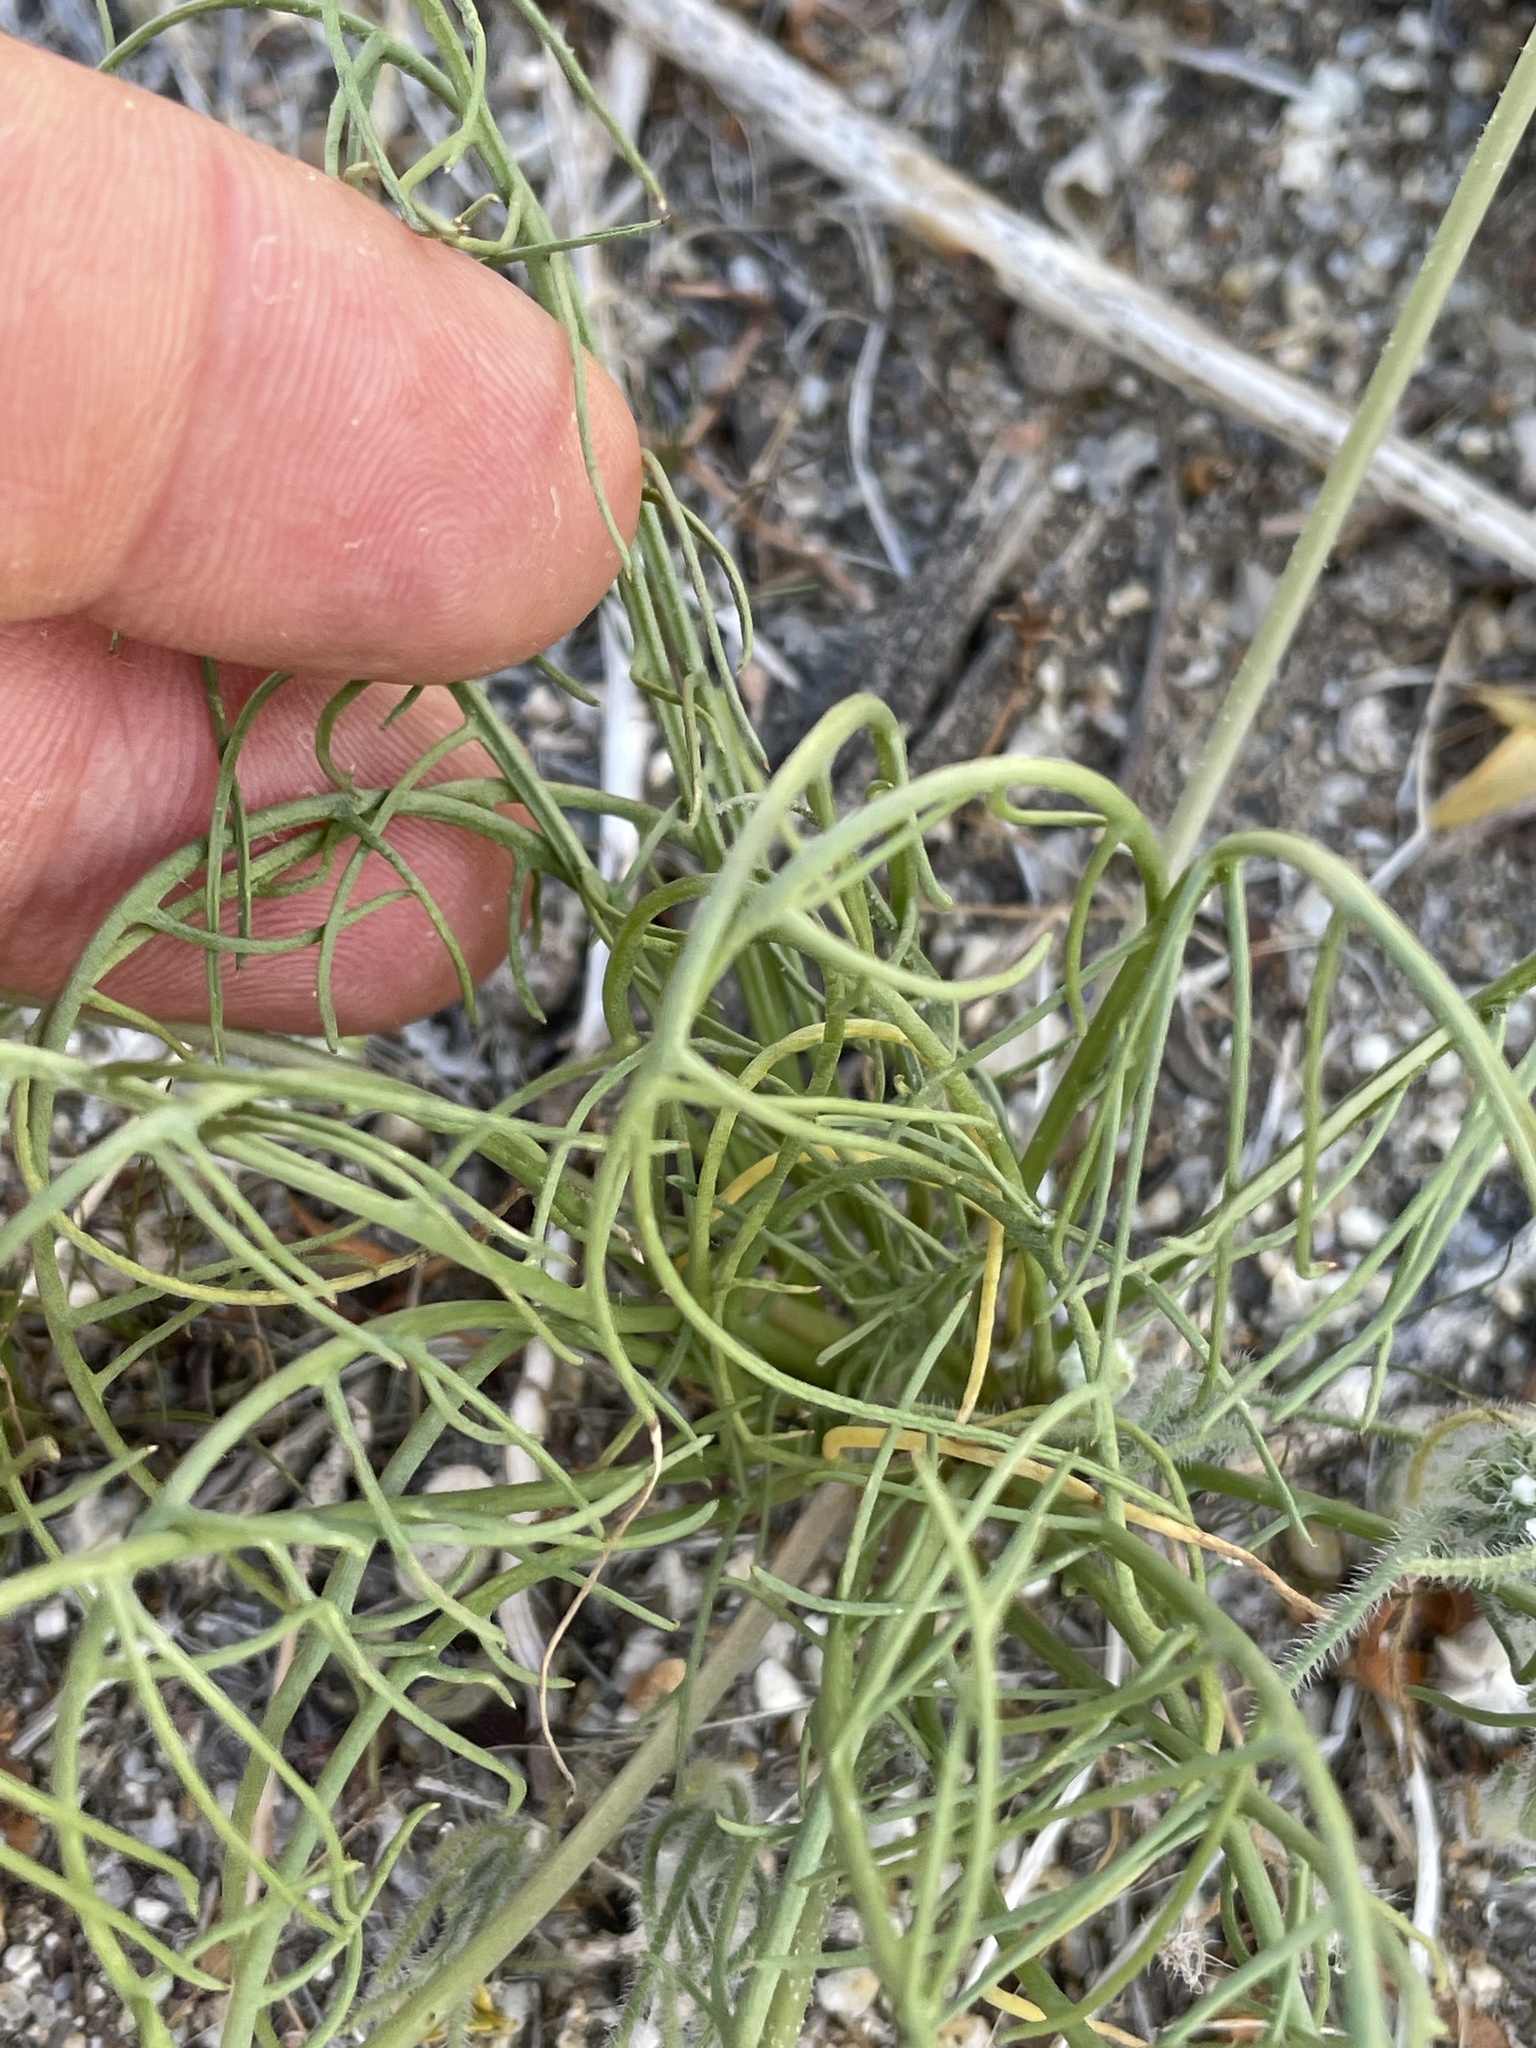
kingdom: Plantae
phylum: Tracheophyta
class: Magnoliopsida
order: Asterales
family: Asteraceae
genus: Malacothrix
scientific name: Malacothrix glabrata
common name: Smooth desert-dandelion
